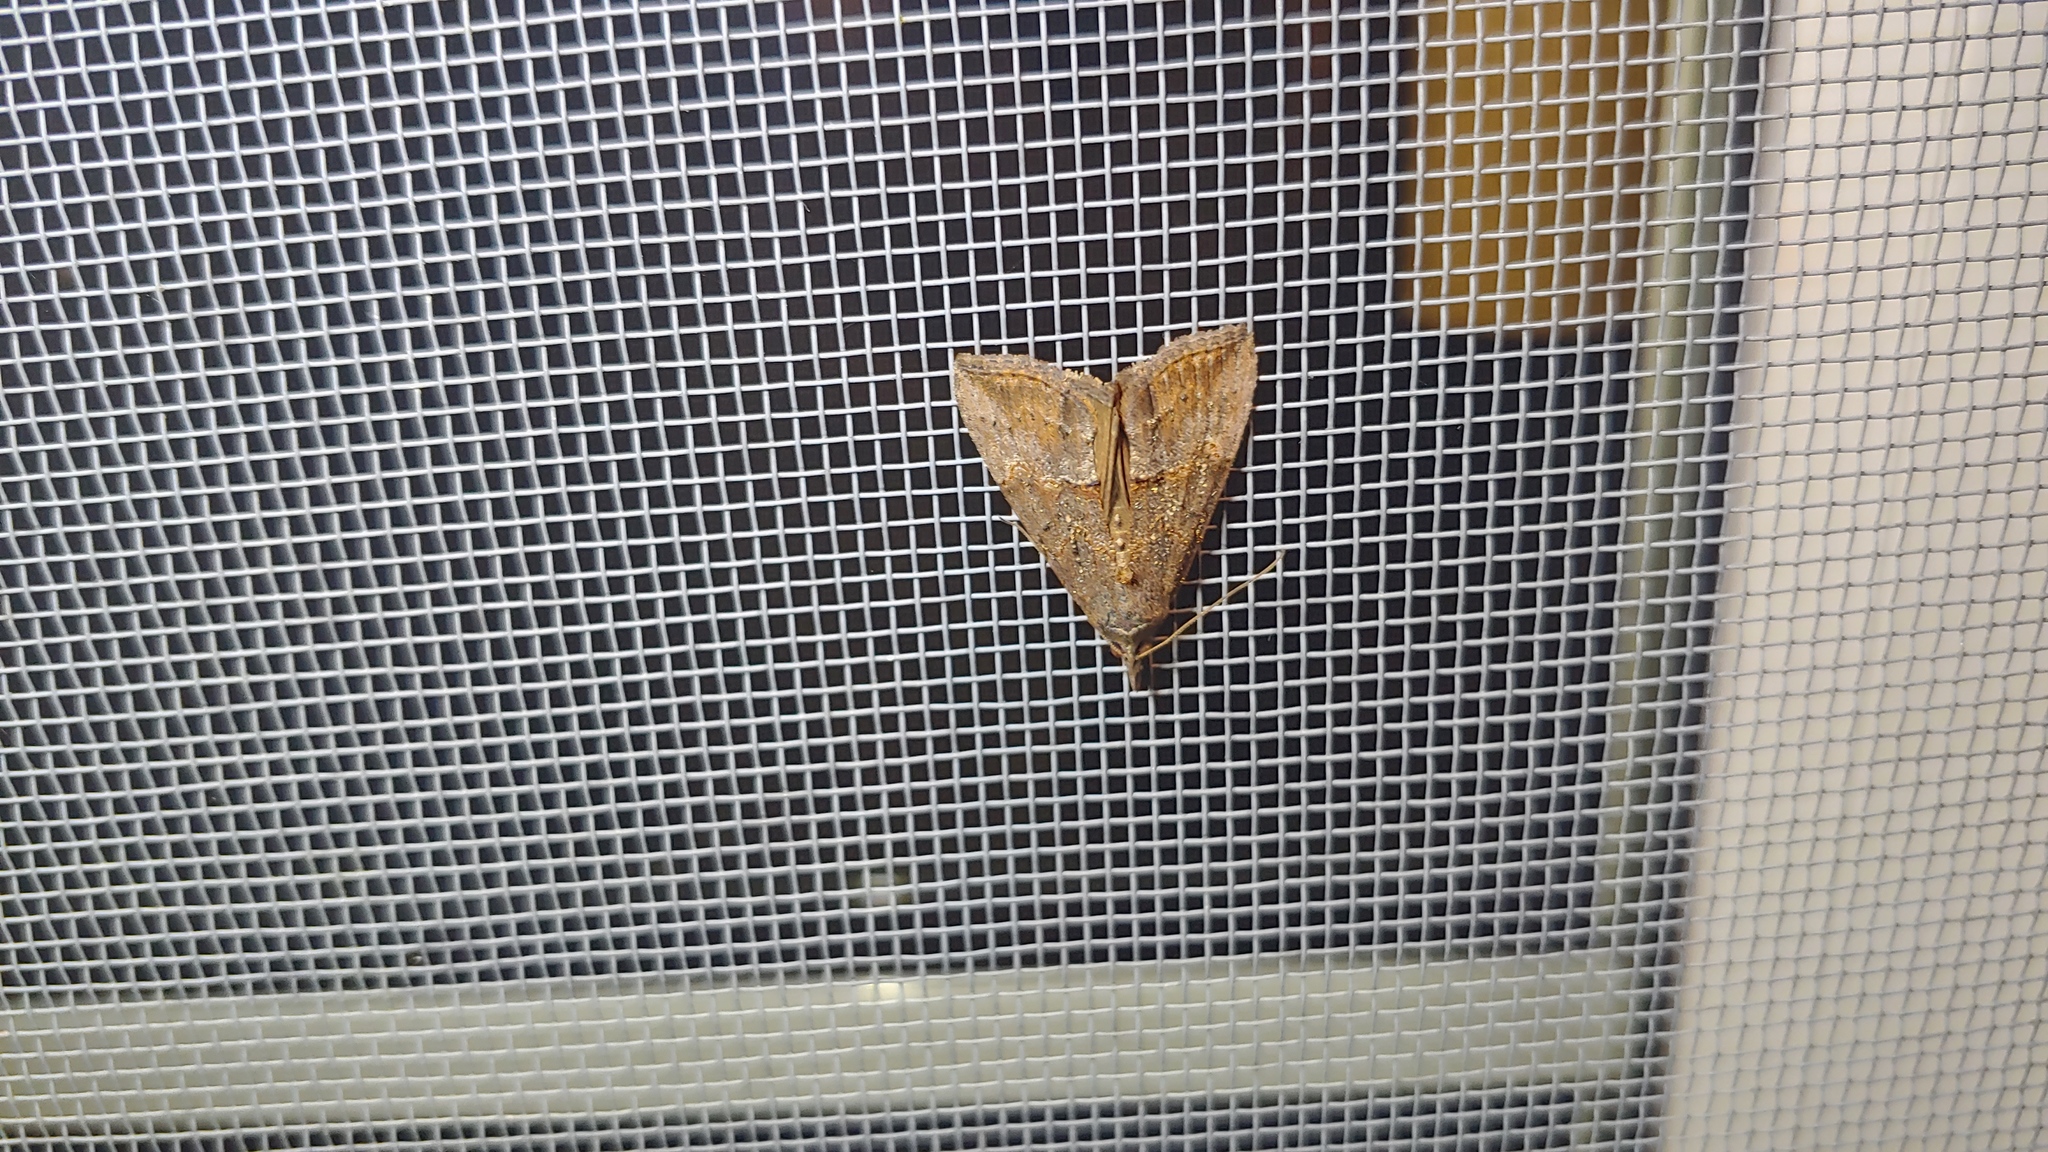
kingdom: Animalia
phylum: Arthropoda
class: Insecta
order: Lepidoptera
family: Erebidae
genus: Hypena
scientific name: Hypena scabra
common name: Green cloverworm
